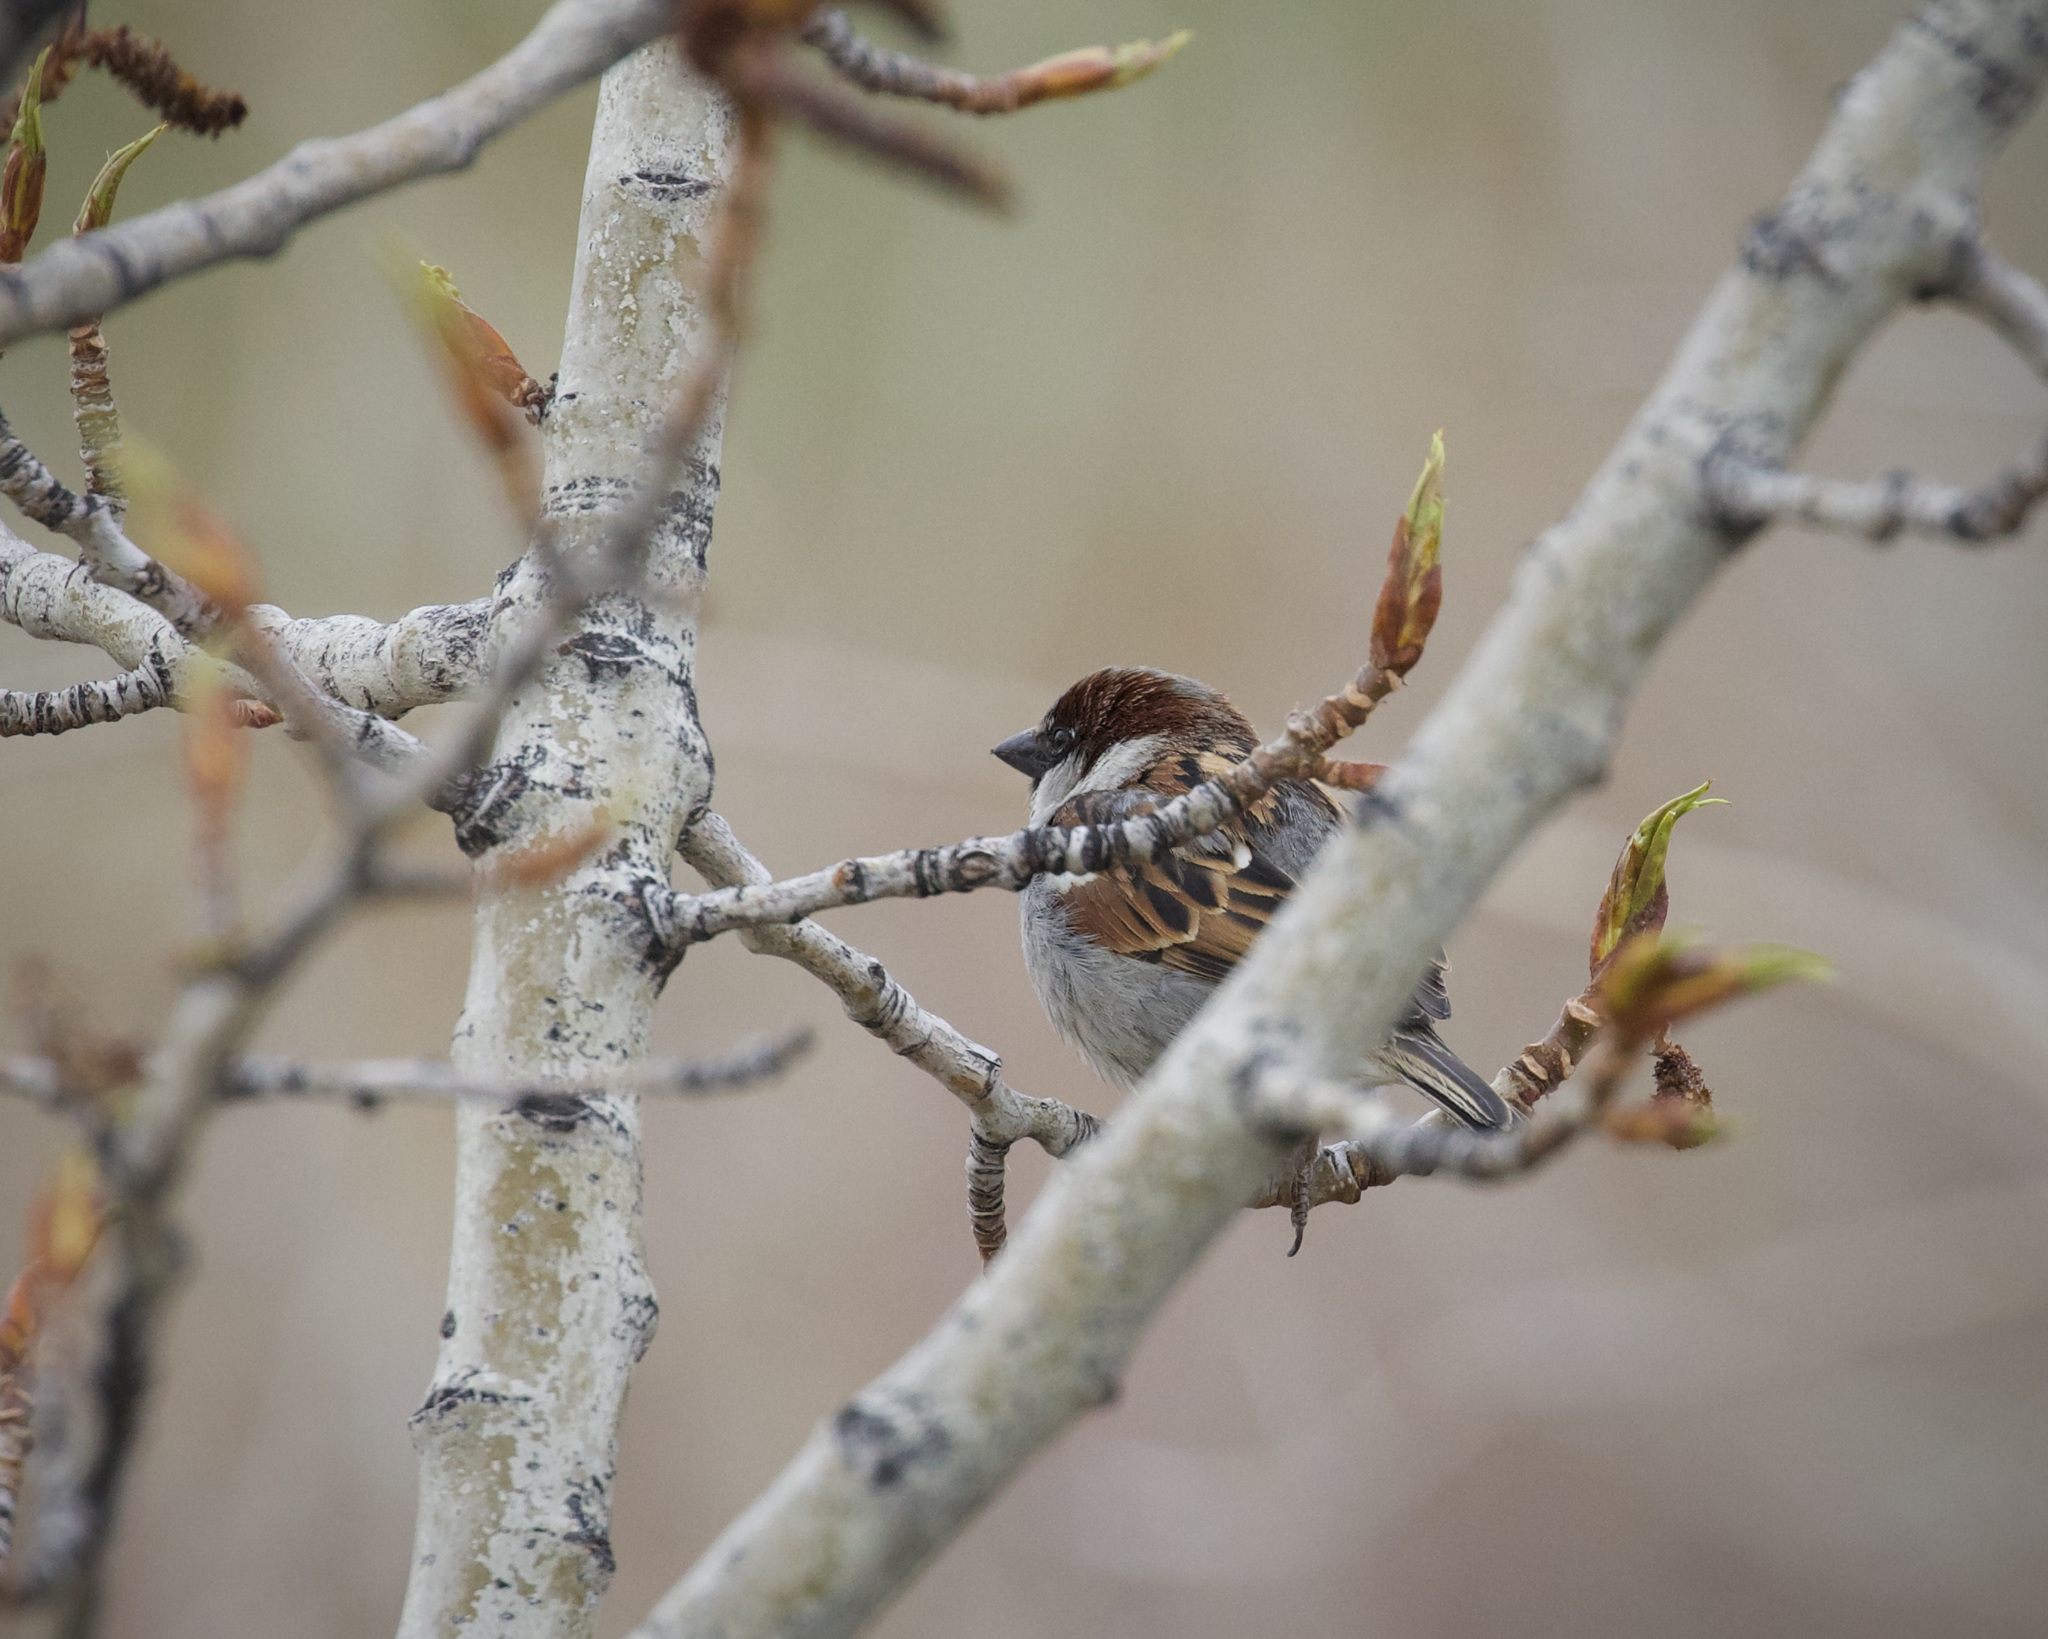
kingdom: Animalia
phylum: Chordata
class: Aves
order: Passeriformes
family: Passeridae
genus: Passer
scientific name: Passer domesticus
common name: House sparrow
